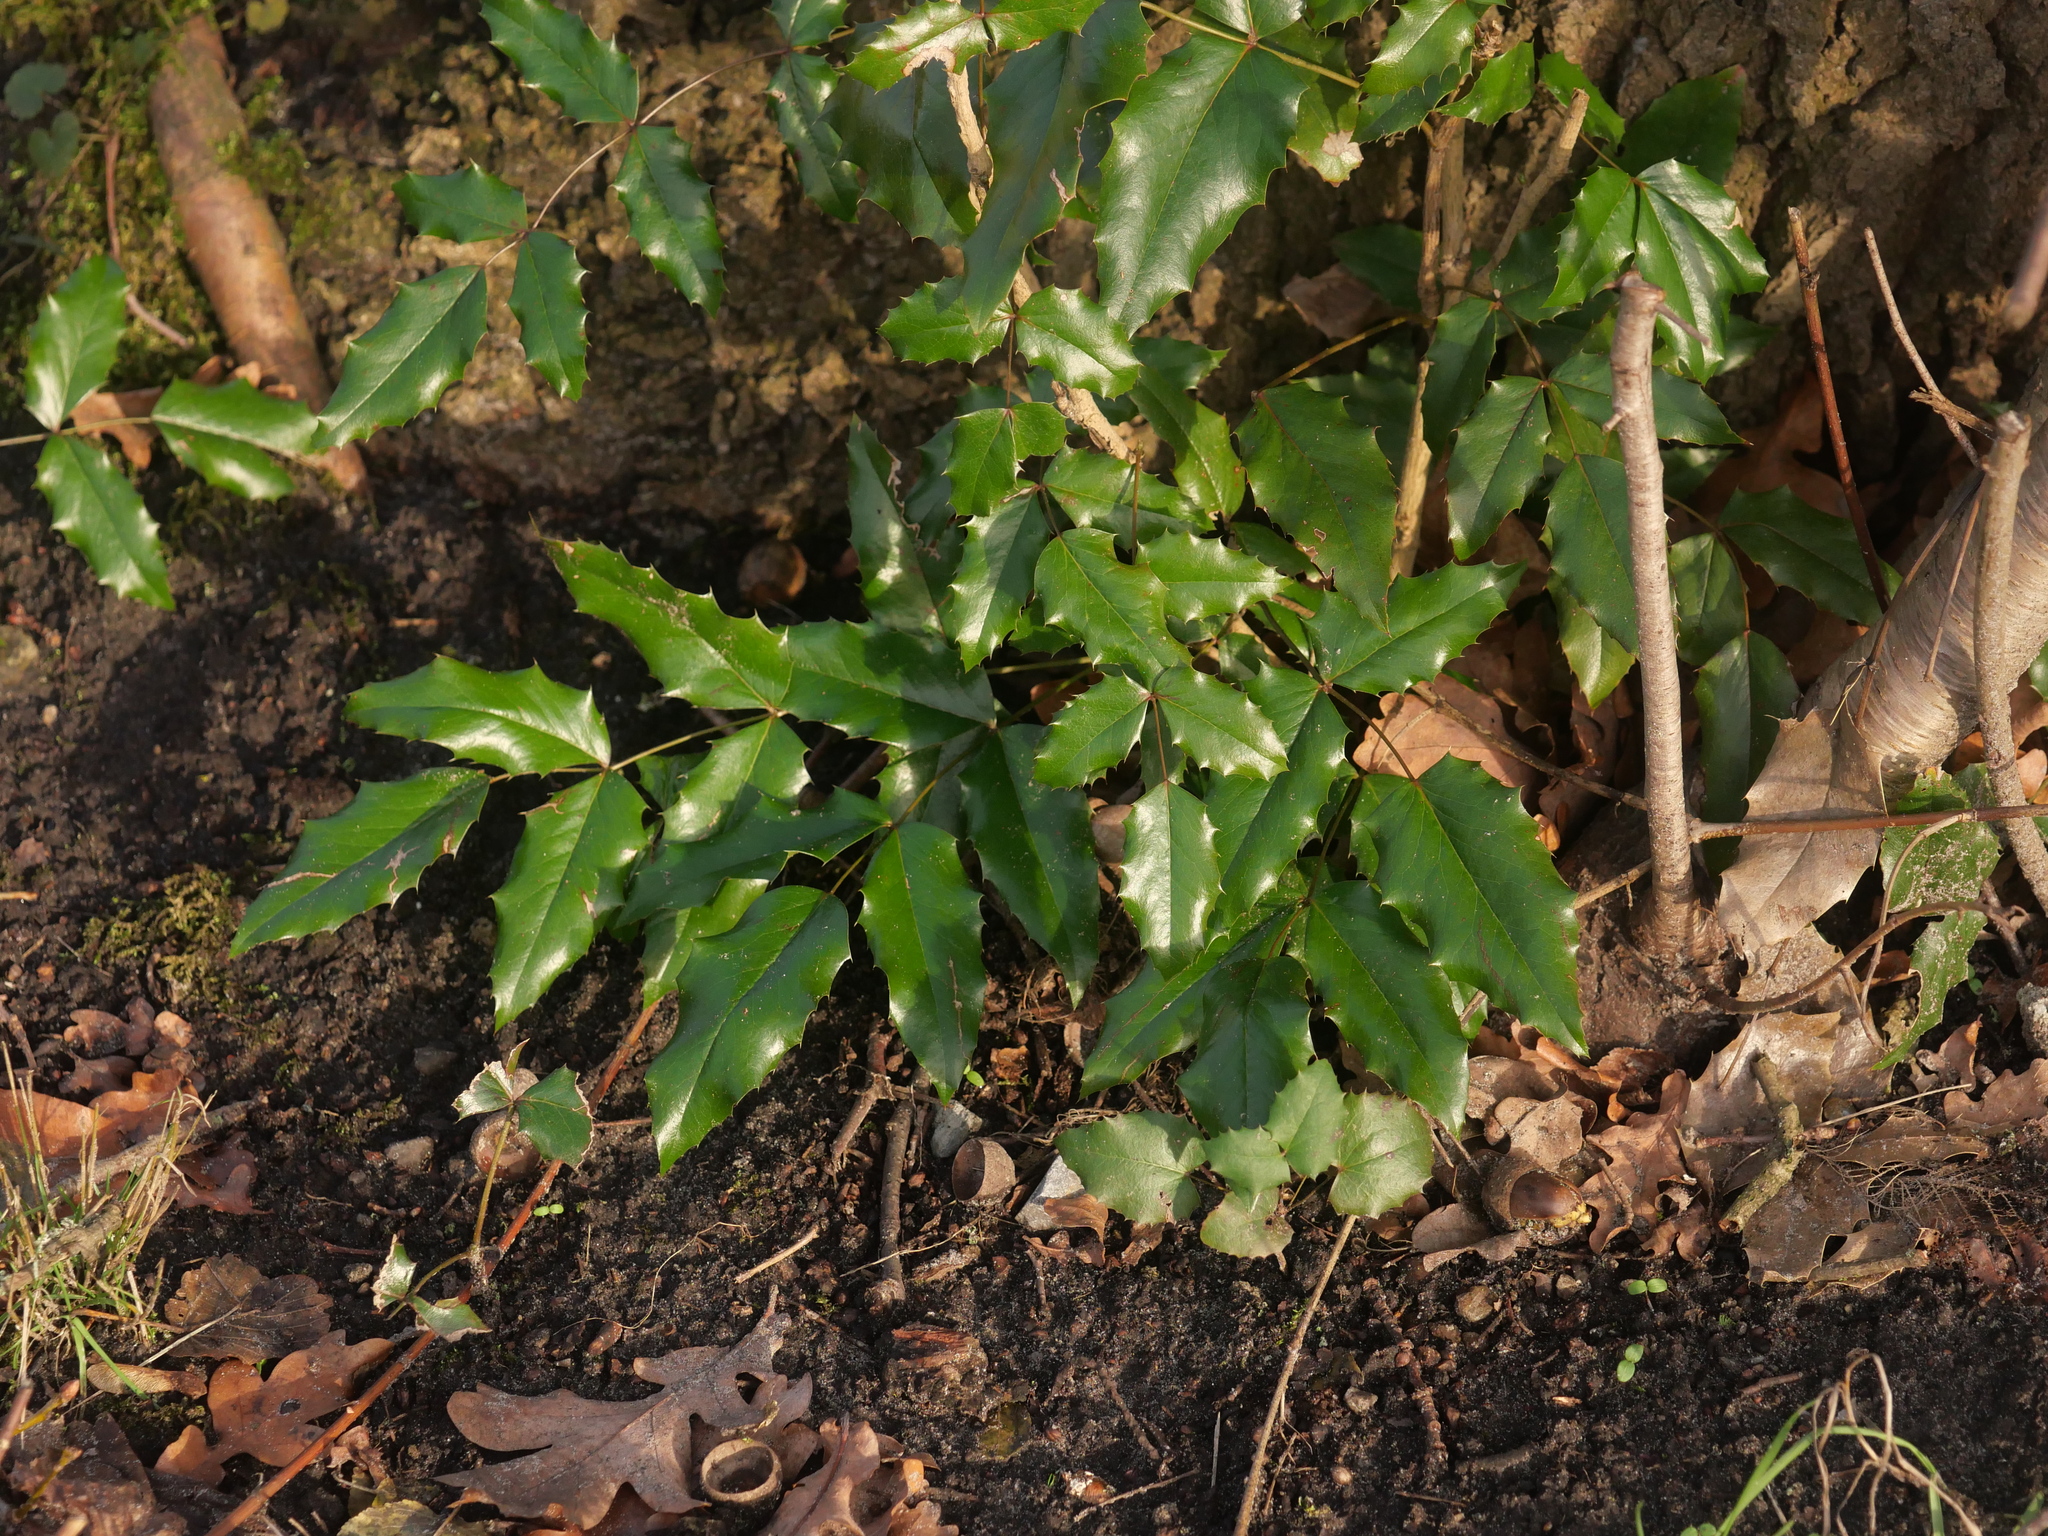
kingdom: Plantae
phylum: Tracheophyta
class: Magnoliopsida
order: Ranunculales
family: Berberidaceae
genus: Mahonia
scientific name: Mahonia aquifolium
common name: Oregon-grape
